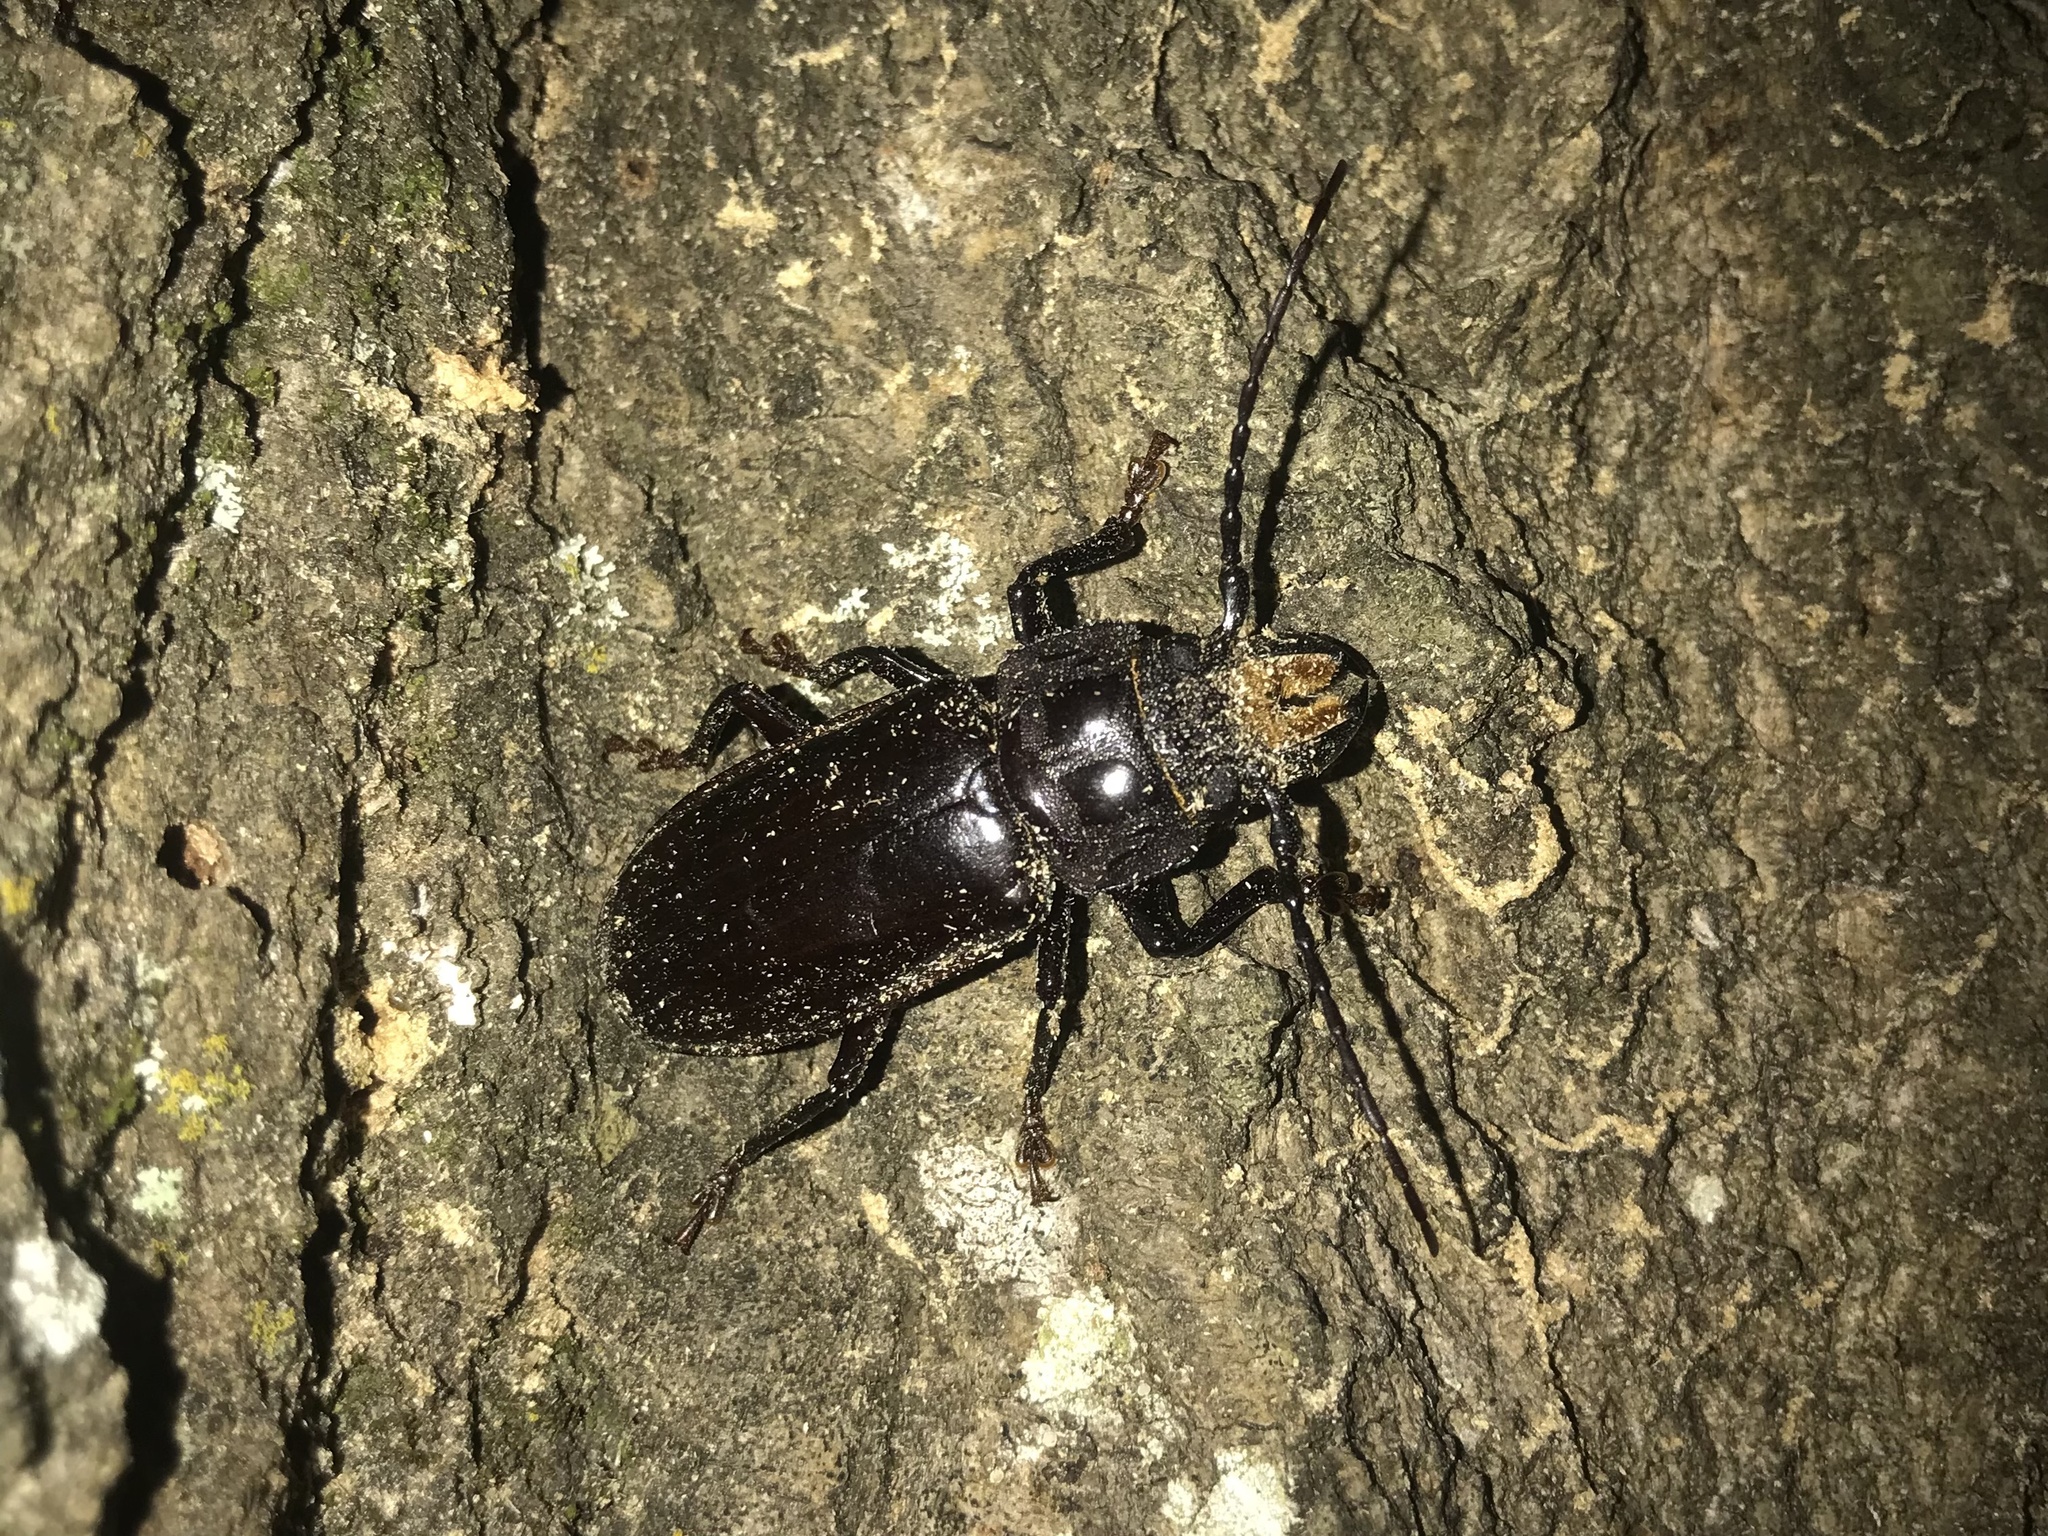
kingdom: Animalia
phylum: Arthropoda
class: Insecta
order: Coleoptera
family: Cerambycidae
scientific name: Cerambycidae
